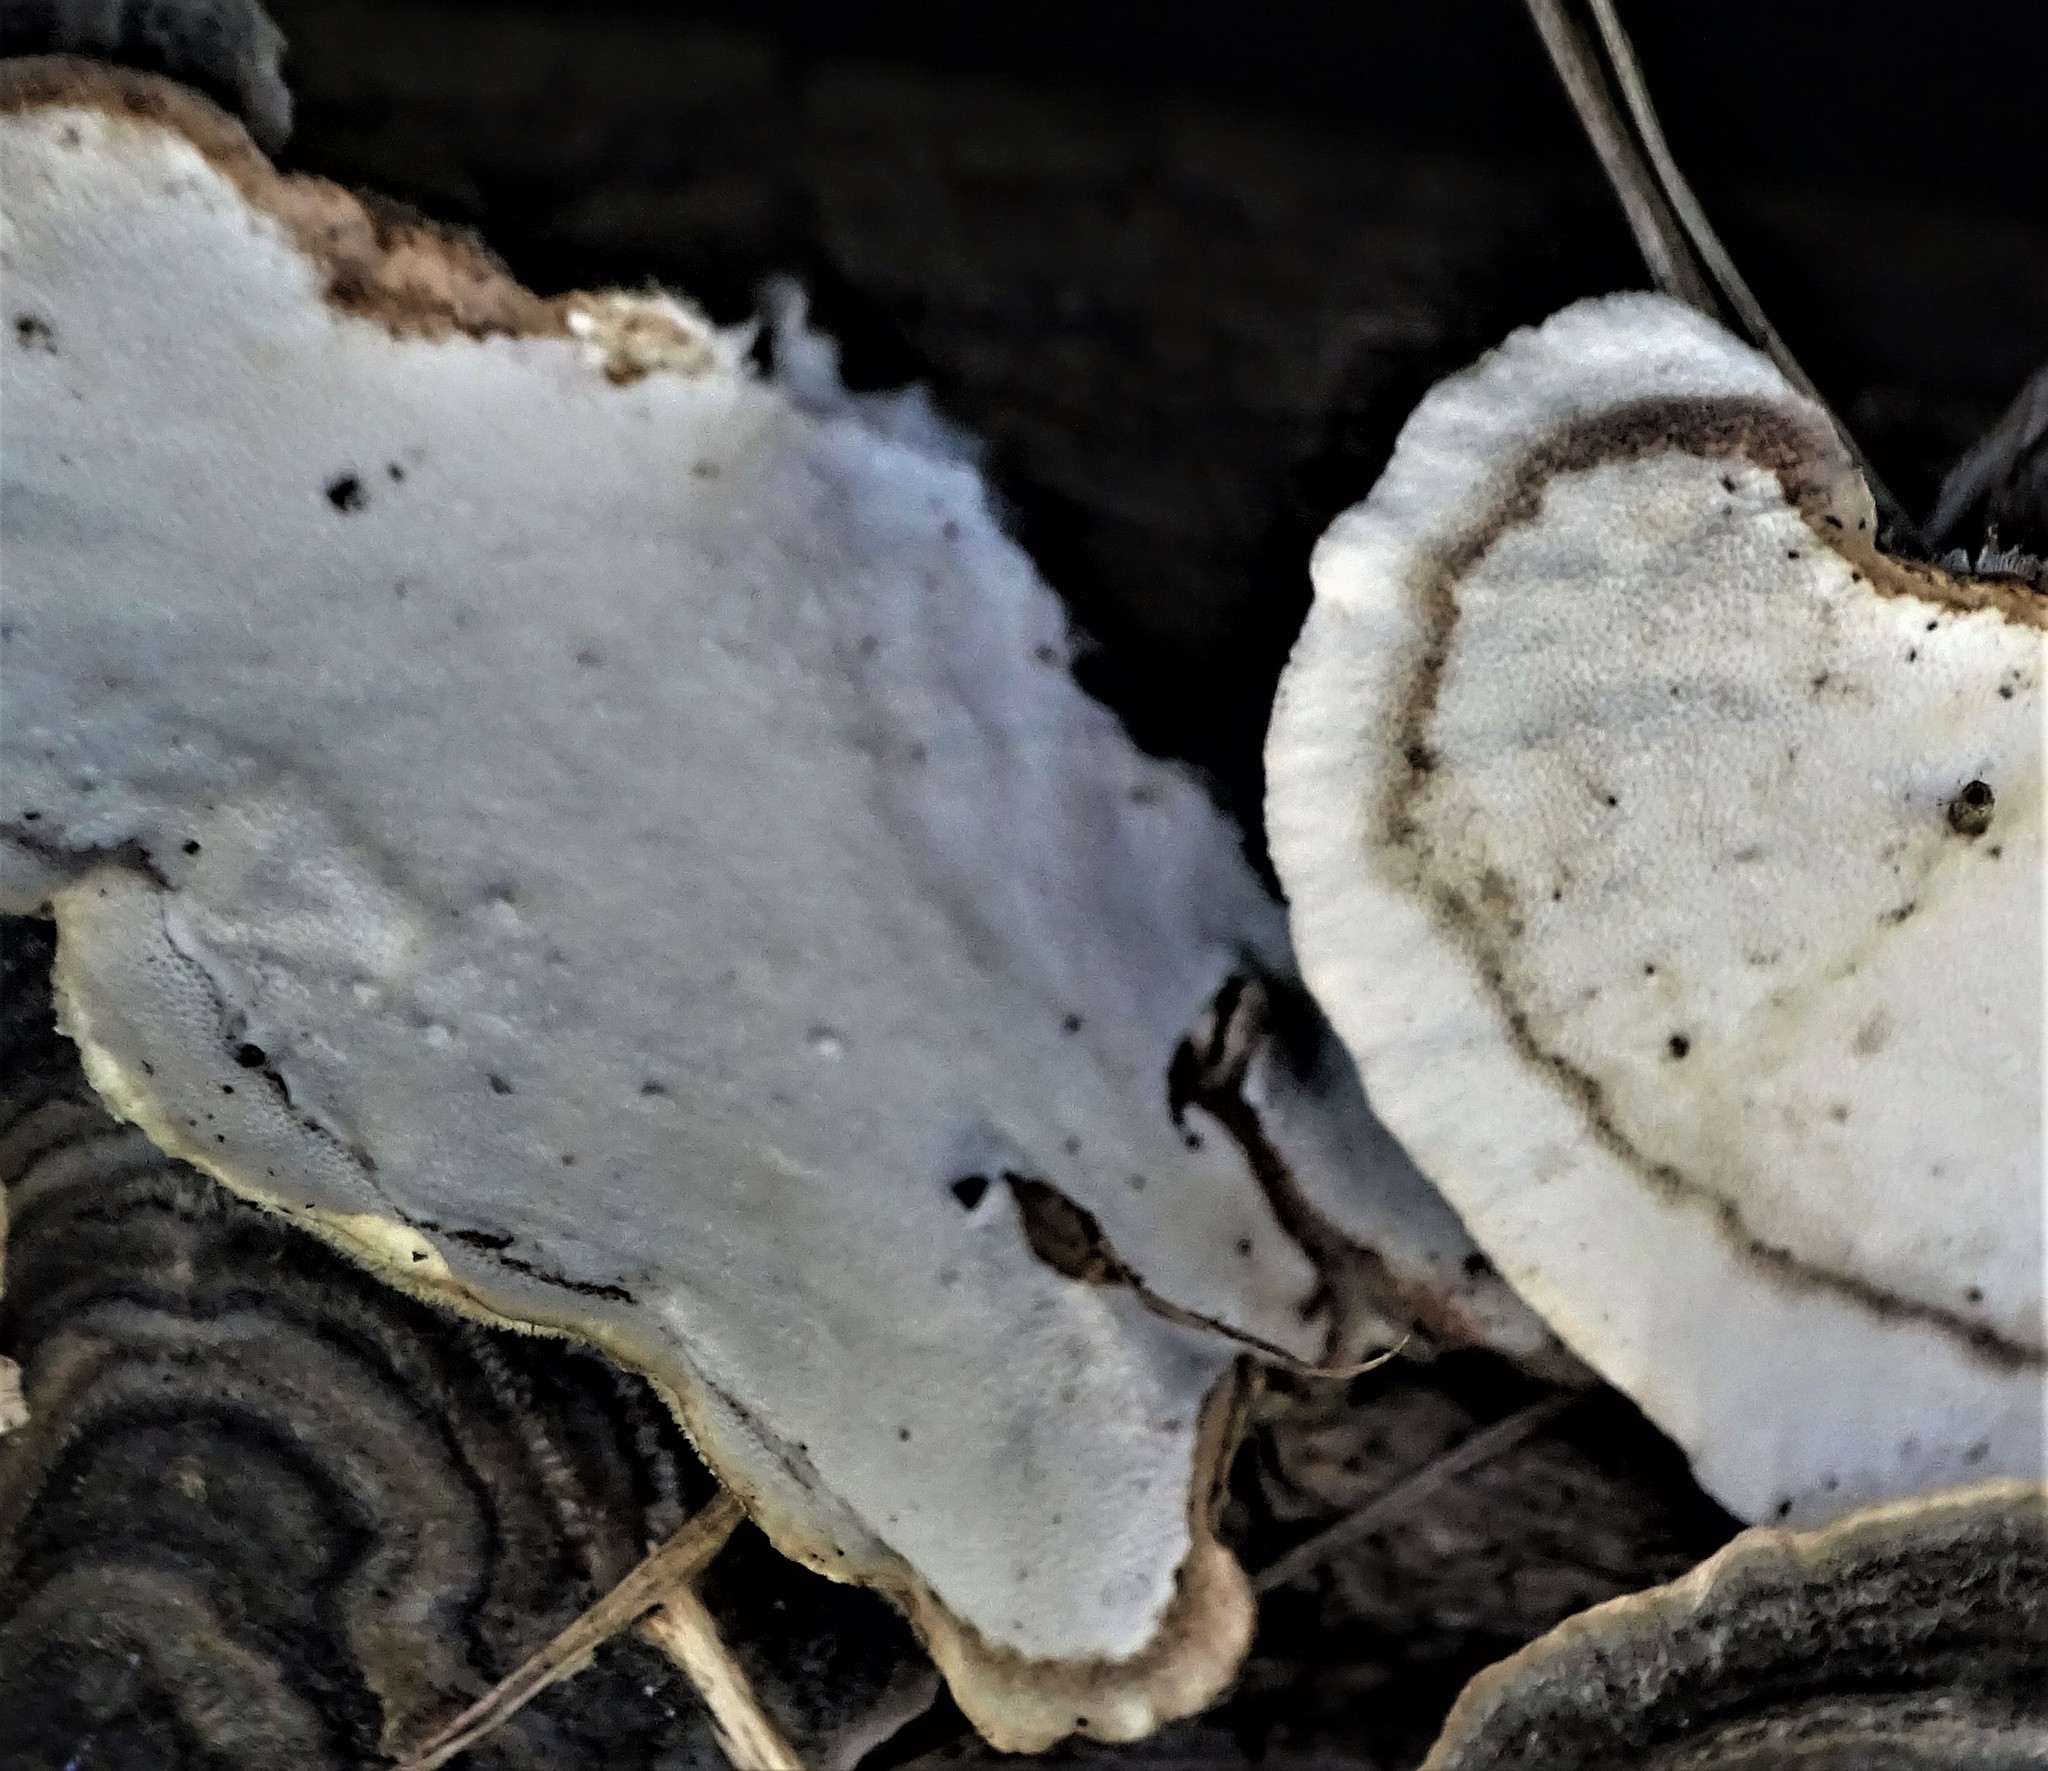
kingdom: Fungi
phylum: Basidiomycota
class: Agaricomycetes
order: Polyporales
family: Polyporaceae
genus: Trametes
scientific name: Trametes versicolor
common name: Turkeytail
